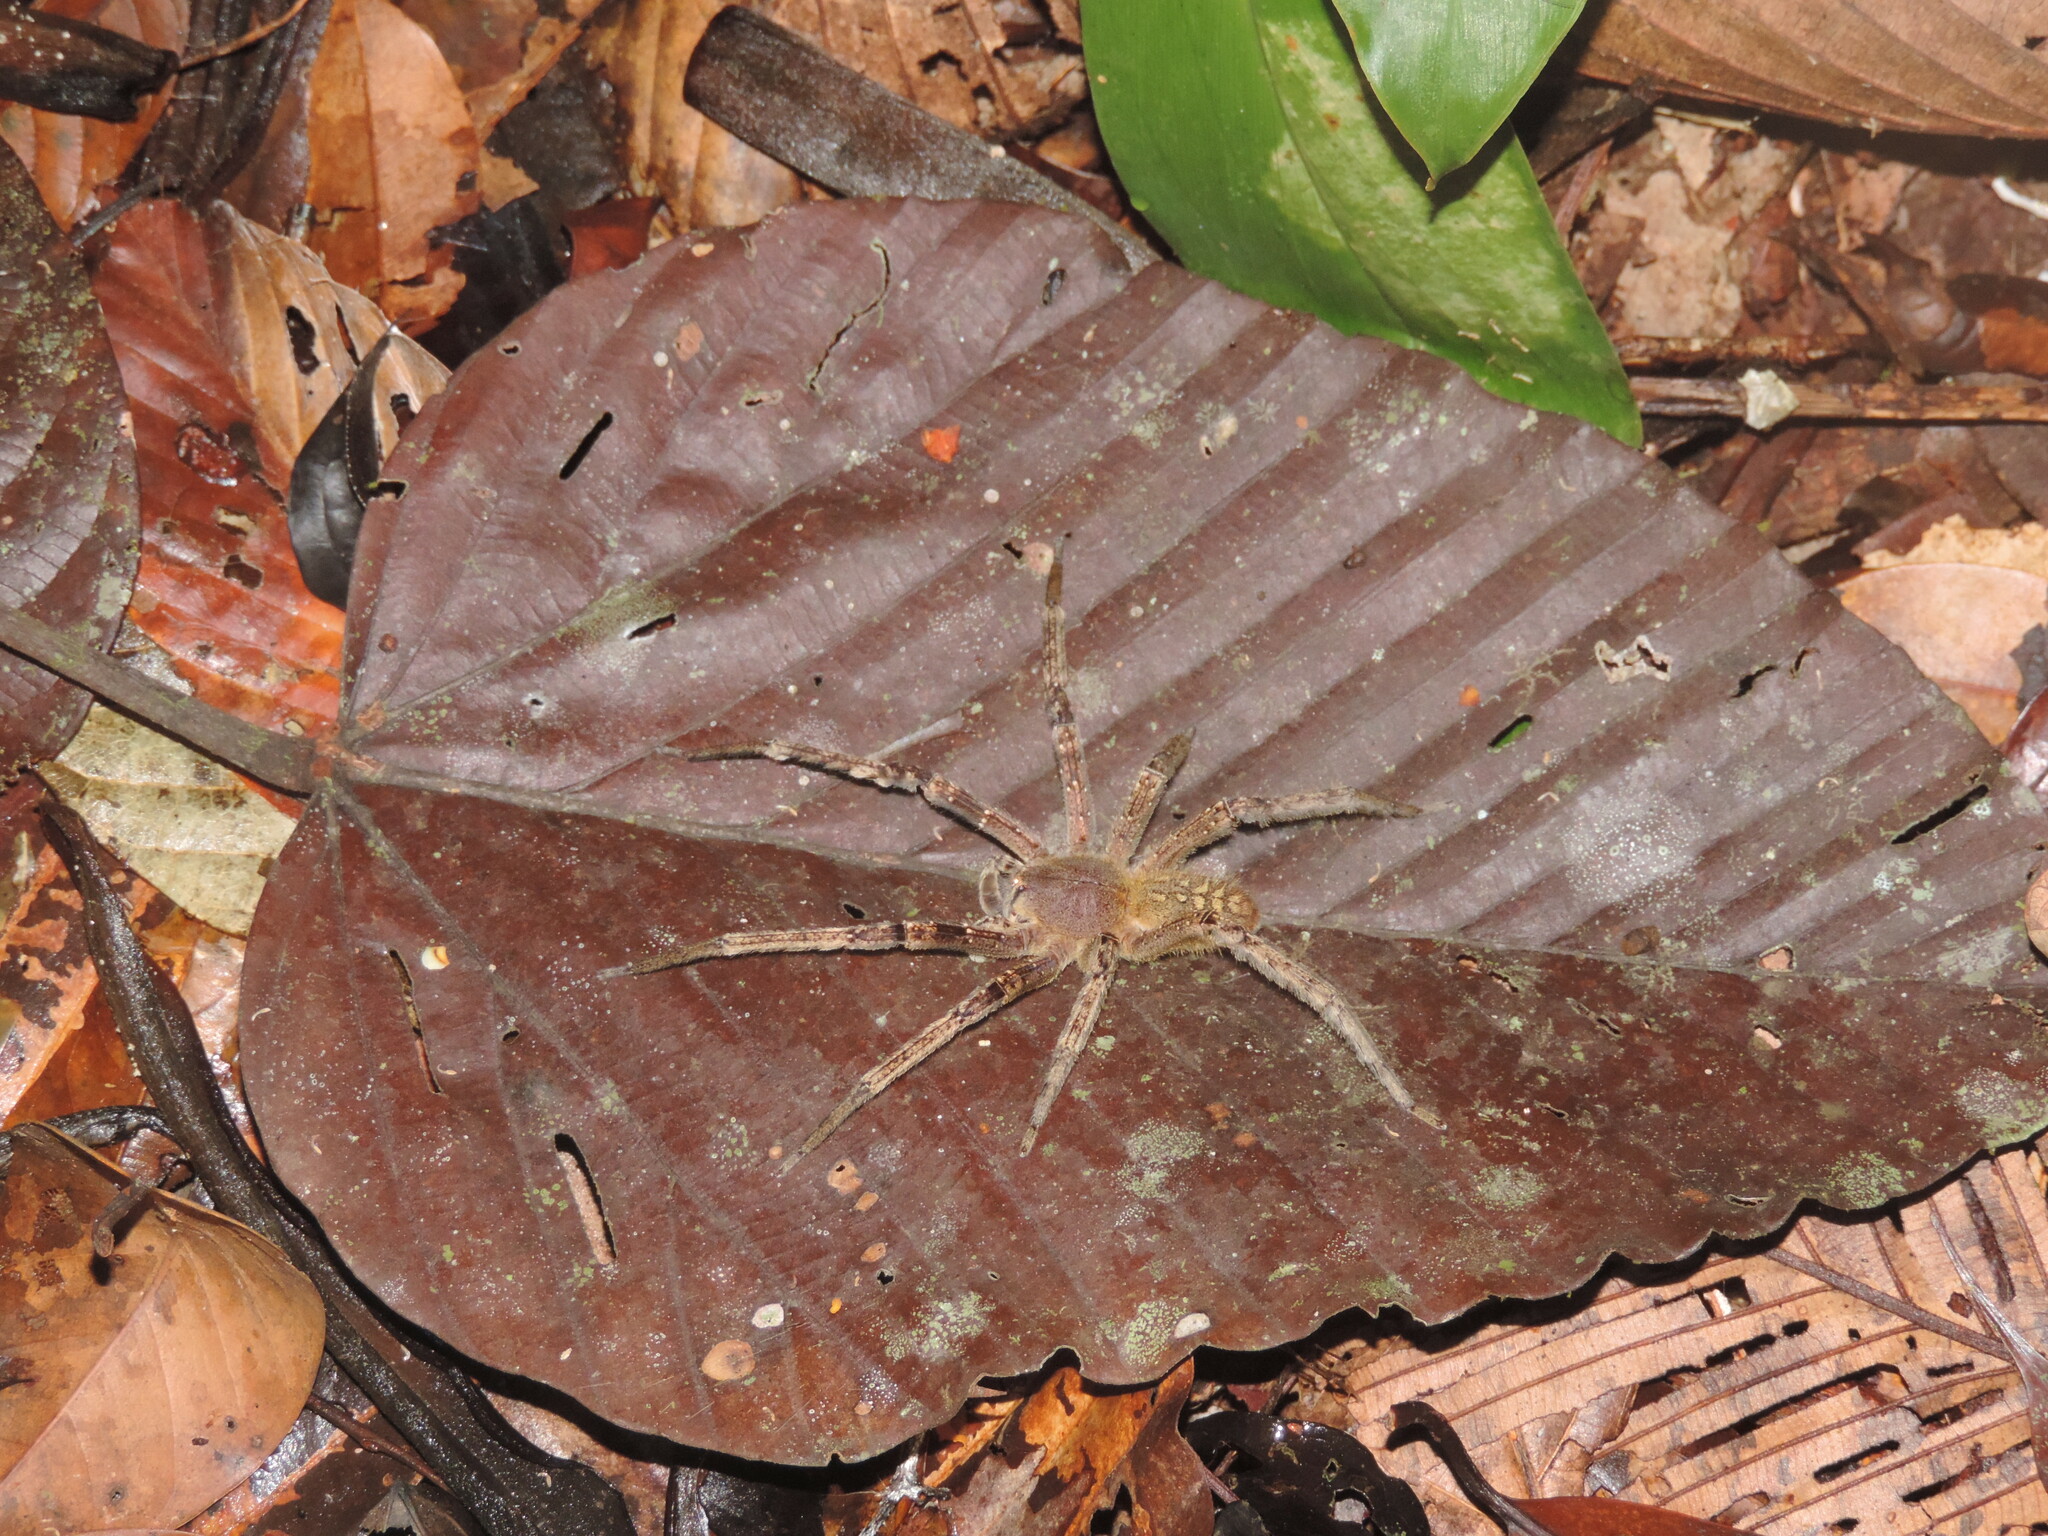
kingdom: Animalia
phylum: Arthropoda
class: Arachnida
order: Araneae
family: Ctenidae
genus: Phoneutria
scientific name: Phoneutria fera
